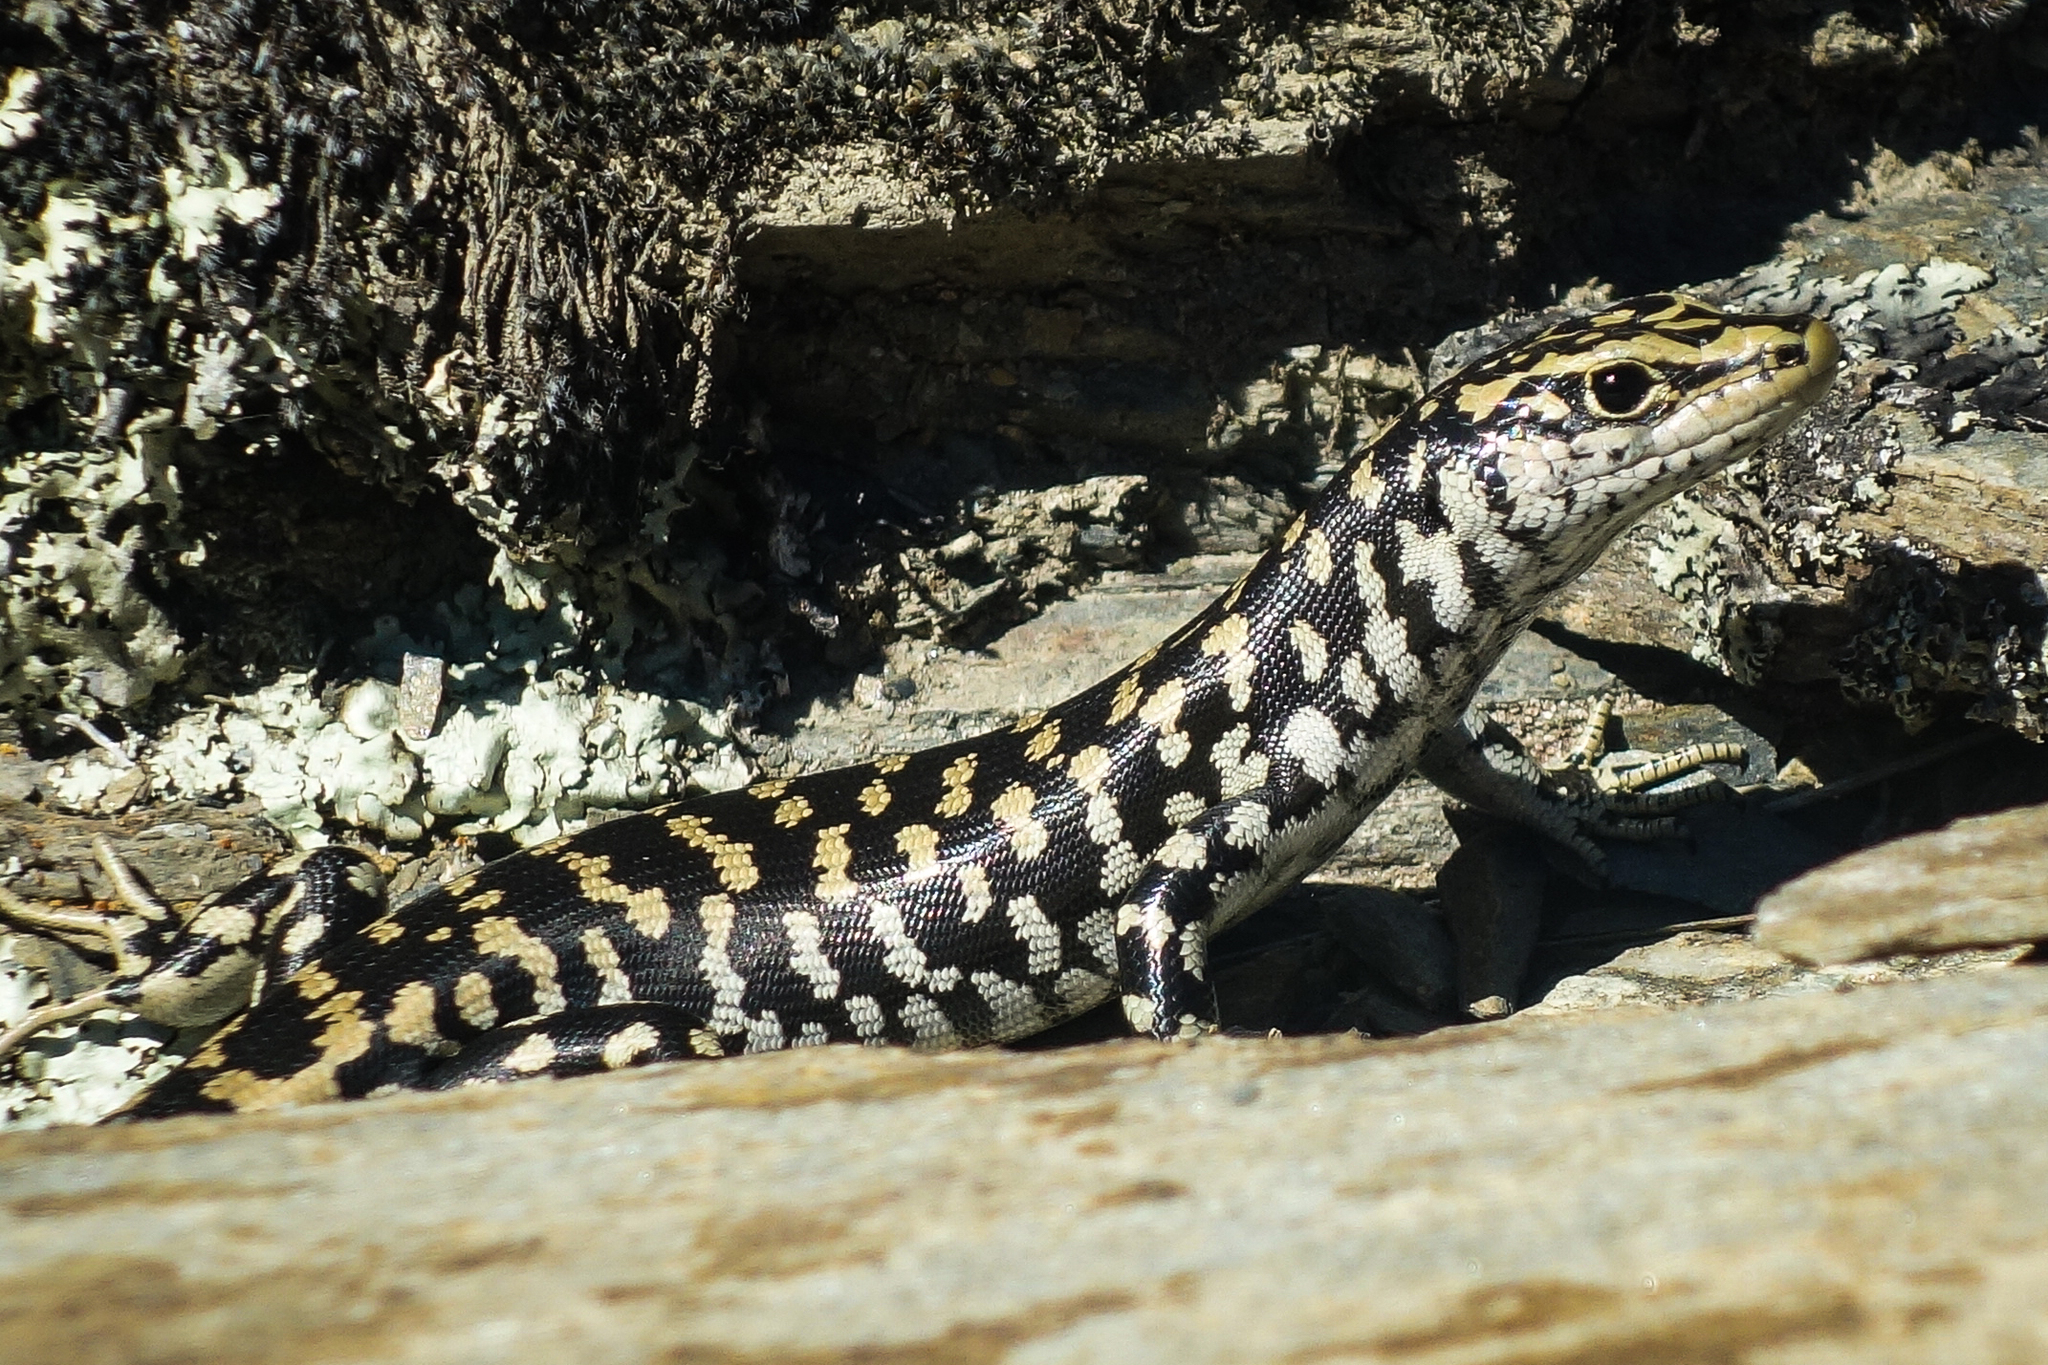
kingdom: Animalia
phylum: Chordata
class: Squamata
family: Scincidae
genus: Oligosoma
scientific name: Oligosoma otagense
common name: Otago skink
